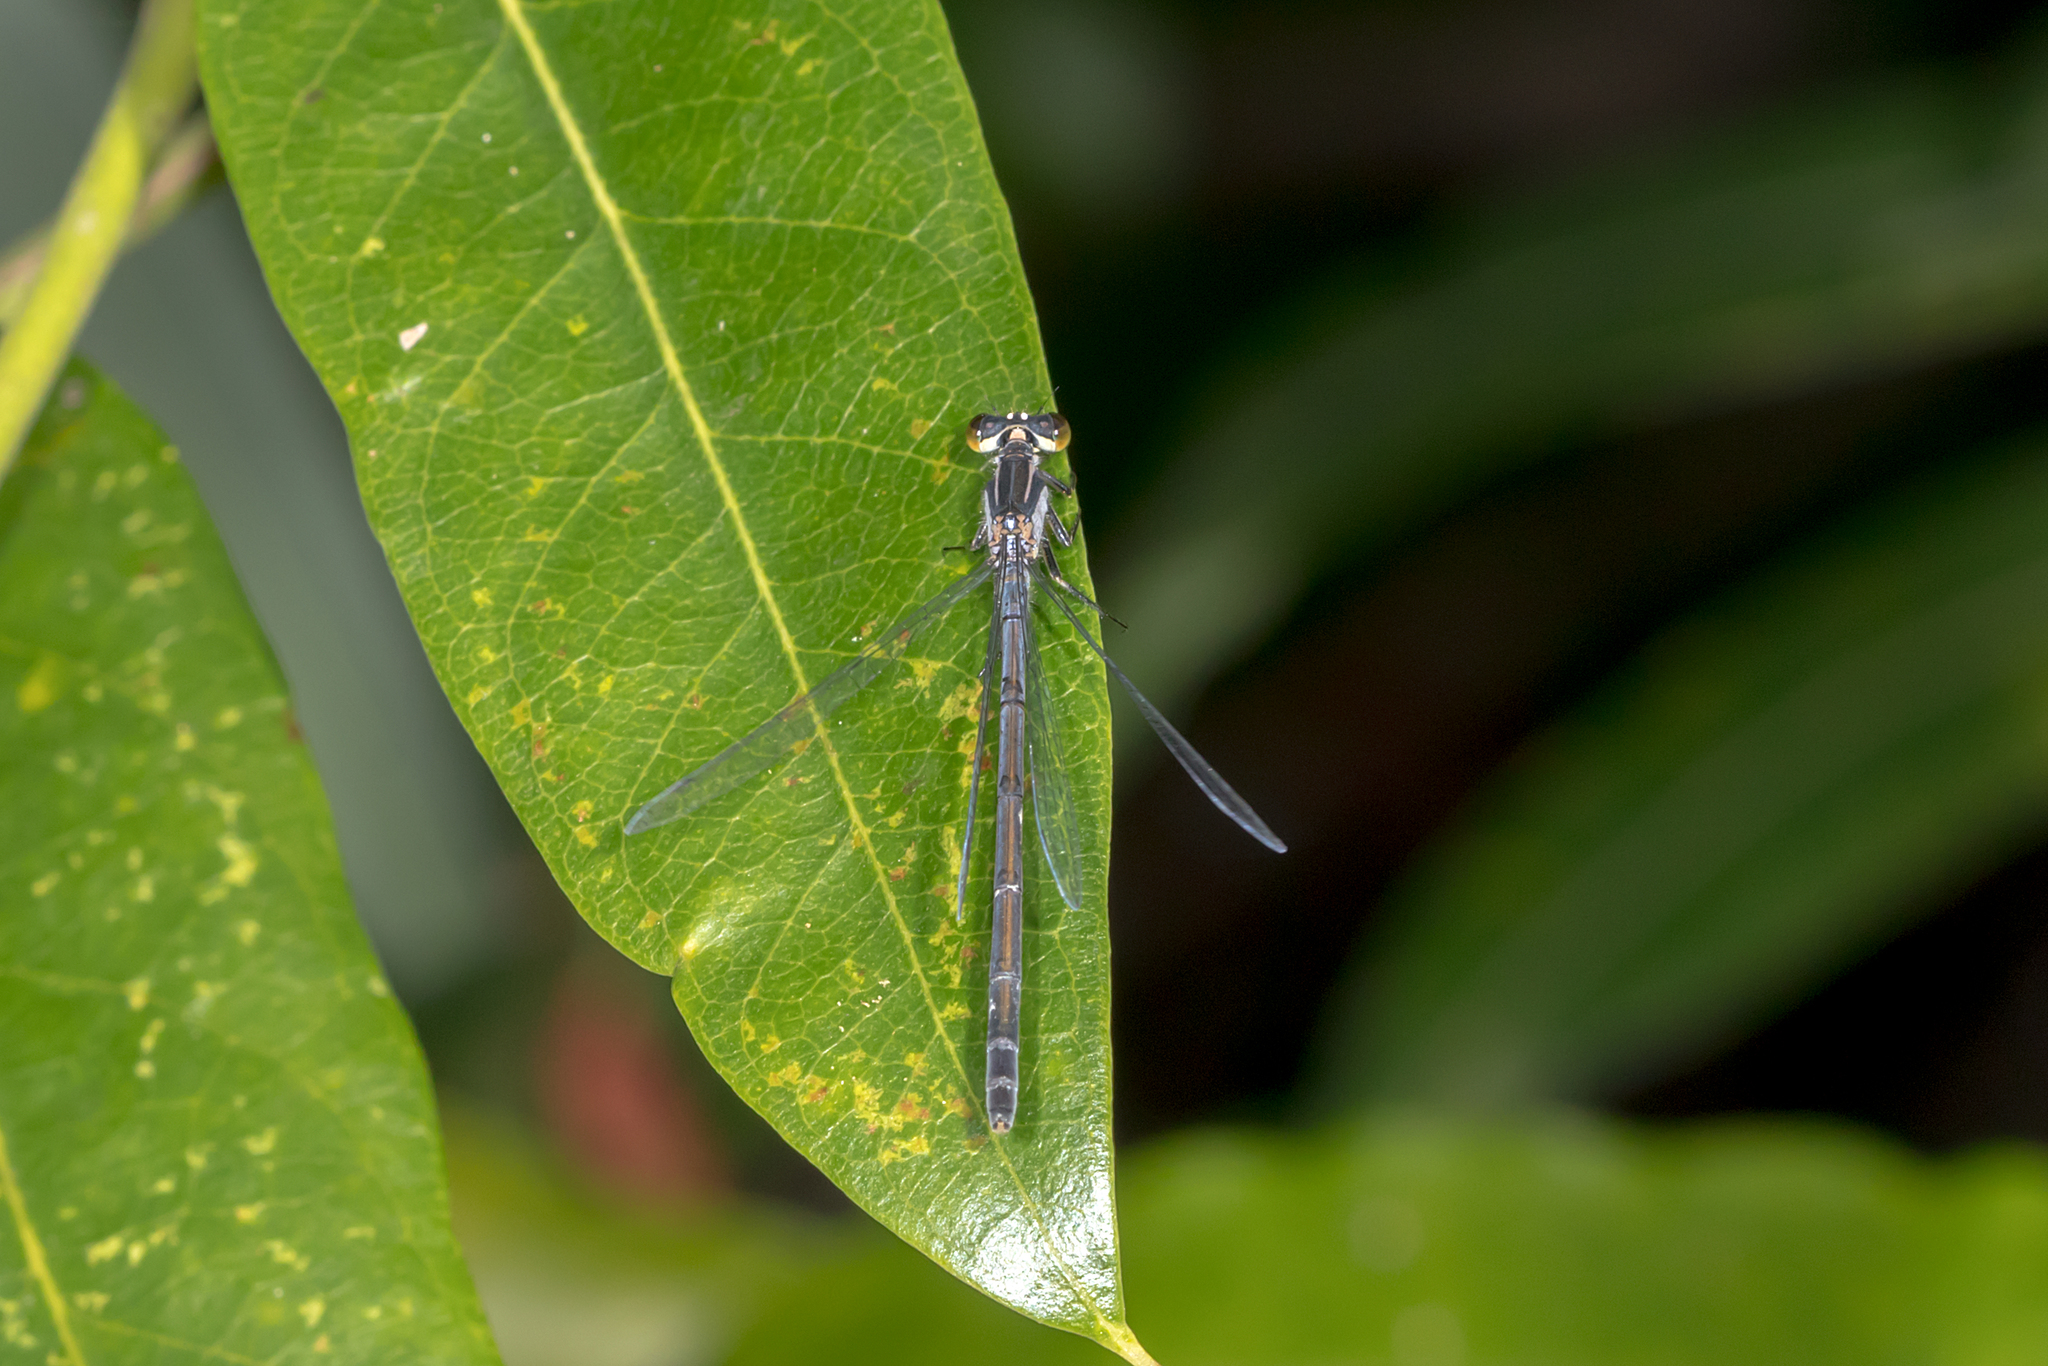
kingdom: Animalia
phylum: Arthropoda
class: Insecta
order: Odonata
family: Coenagrionidae
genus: Ischnura
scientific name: Ischnura heterosticta
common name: Common bluetail
